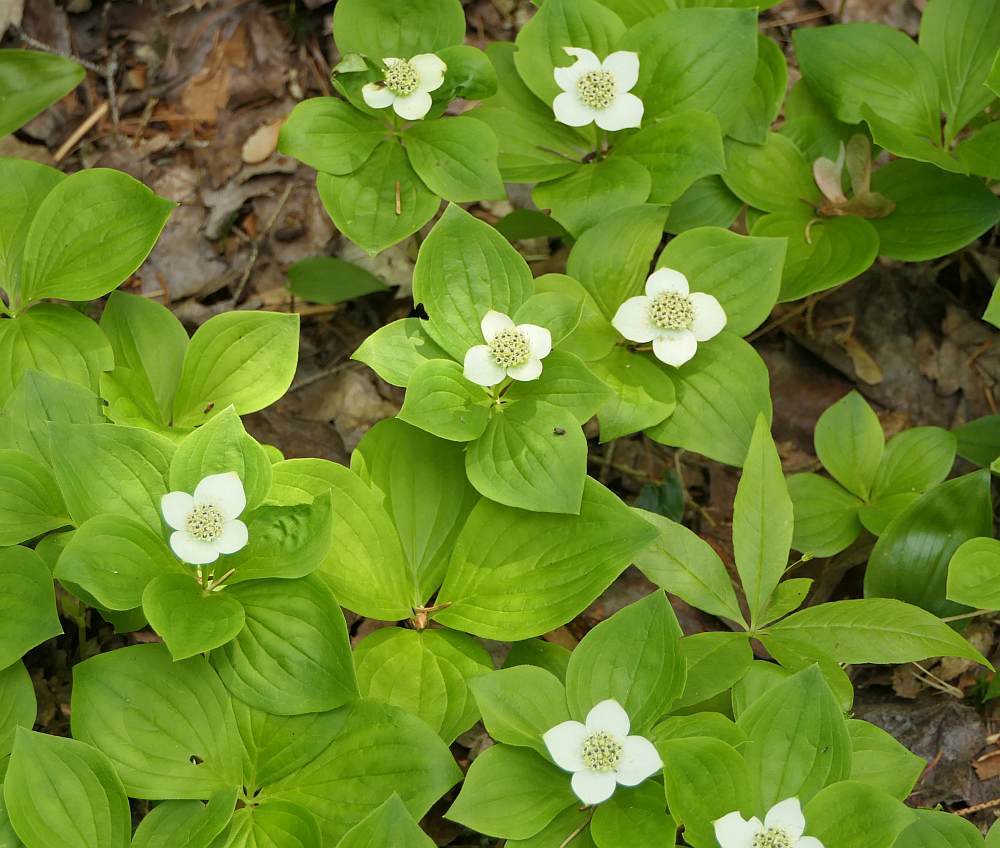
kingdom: Plantae
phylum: Tracheophyta
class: Magnoliopsida
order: Cornales
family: Cornaceae
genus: Cornus
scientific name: Cornus canadensis
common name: Creeping dogwood
